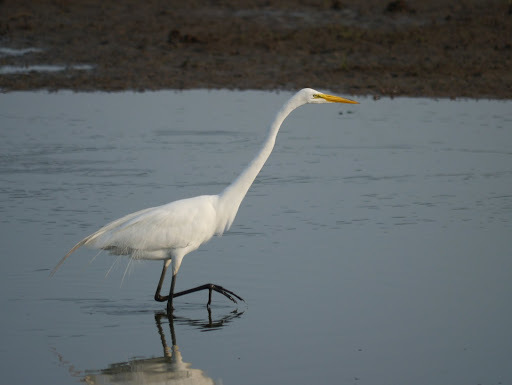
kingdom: Animalia
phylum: Chordata
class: Aves
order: Pelecaniformes
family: Ardeidae
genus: Ardea
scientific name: Ardea alba
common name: Great egret
